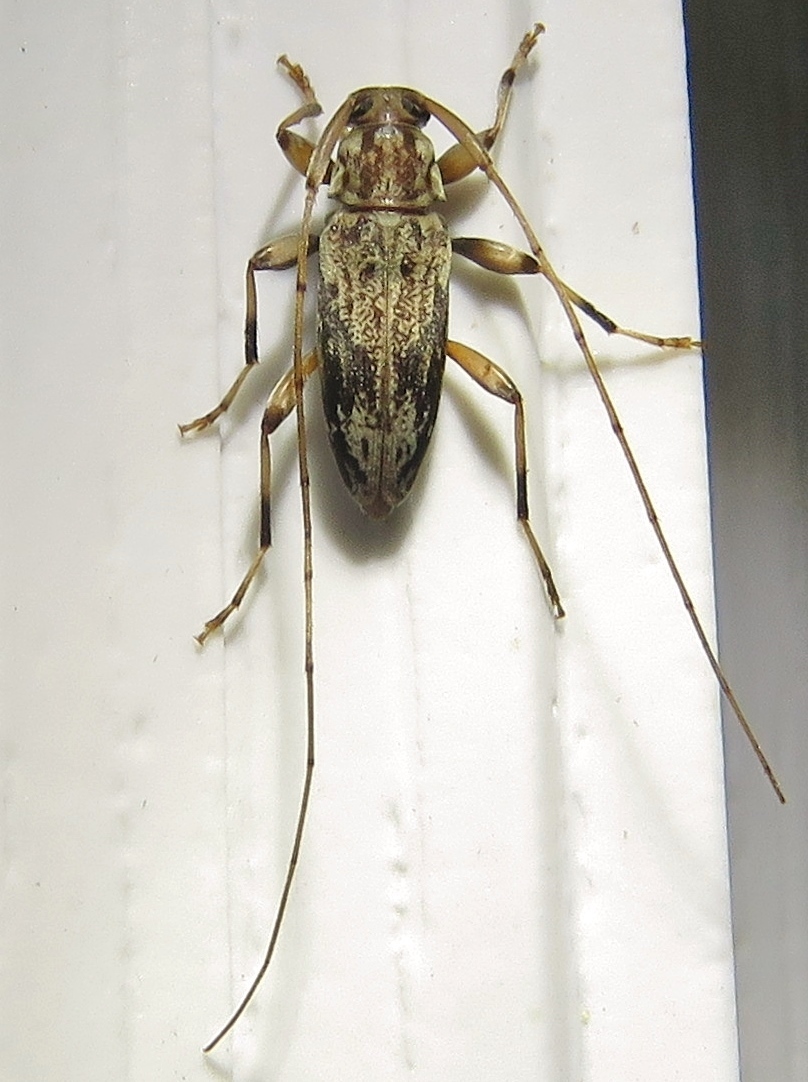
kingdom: Animalia
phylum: Arthropoda
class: Insecta
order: Coleoptera
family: Cerambycidae
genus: Lepturges
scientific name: Lepturges angulatus
